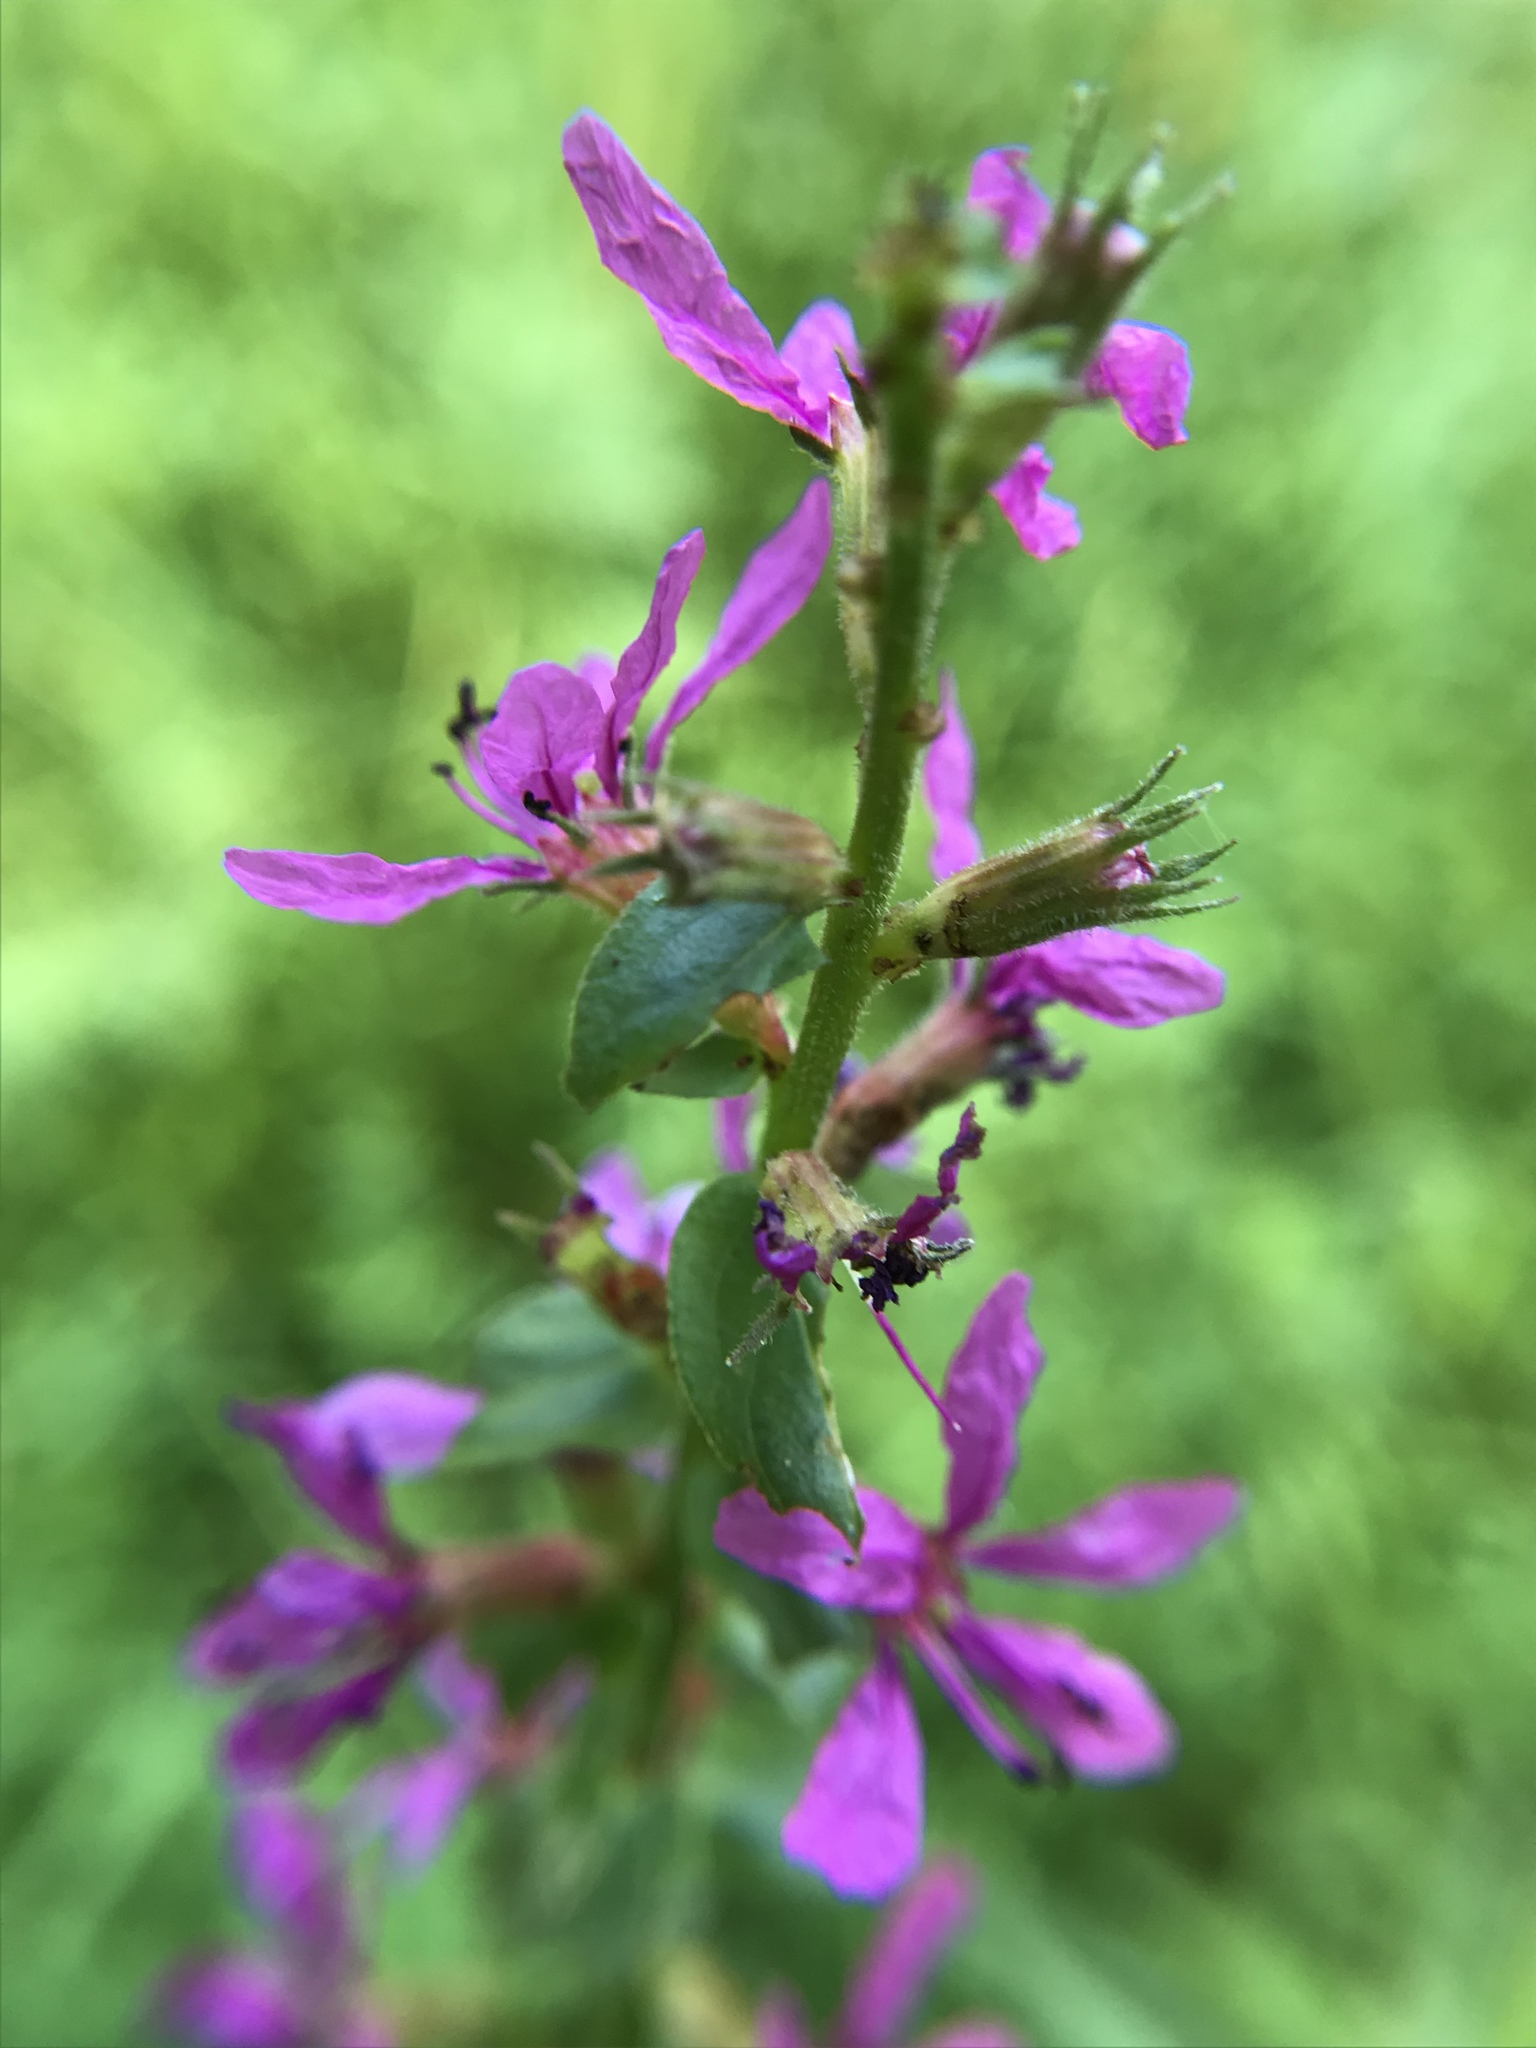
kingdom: Plantae
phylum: Tracheophyta
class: Magnoliopsida
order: Myrtales
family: Lythraceae
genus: Lythrum
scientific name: Lythrum salicaria
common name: Purple loosestrife
